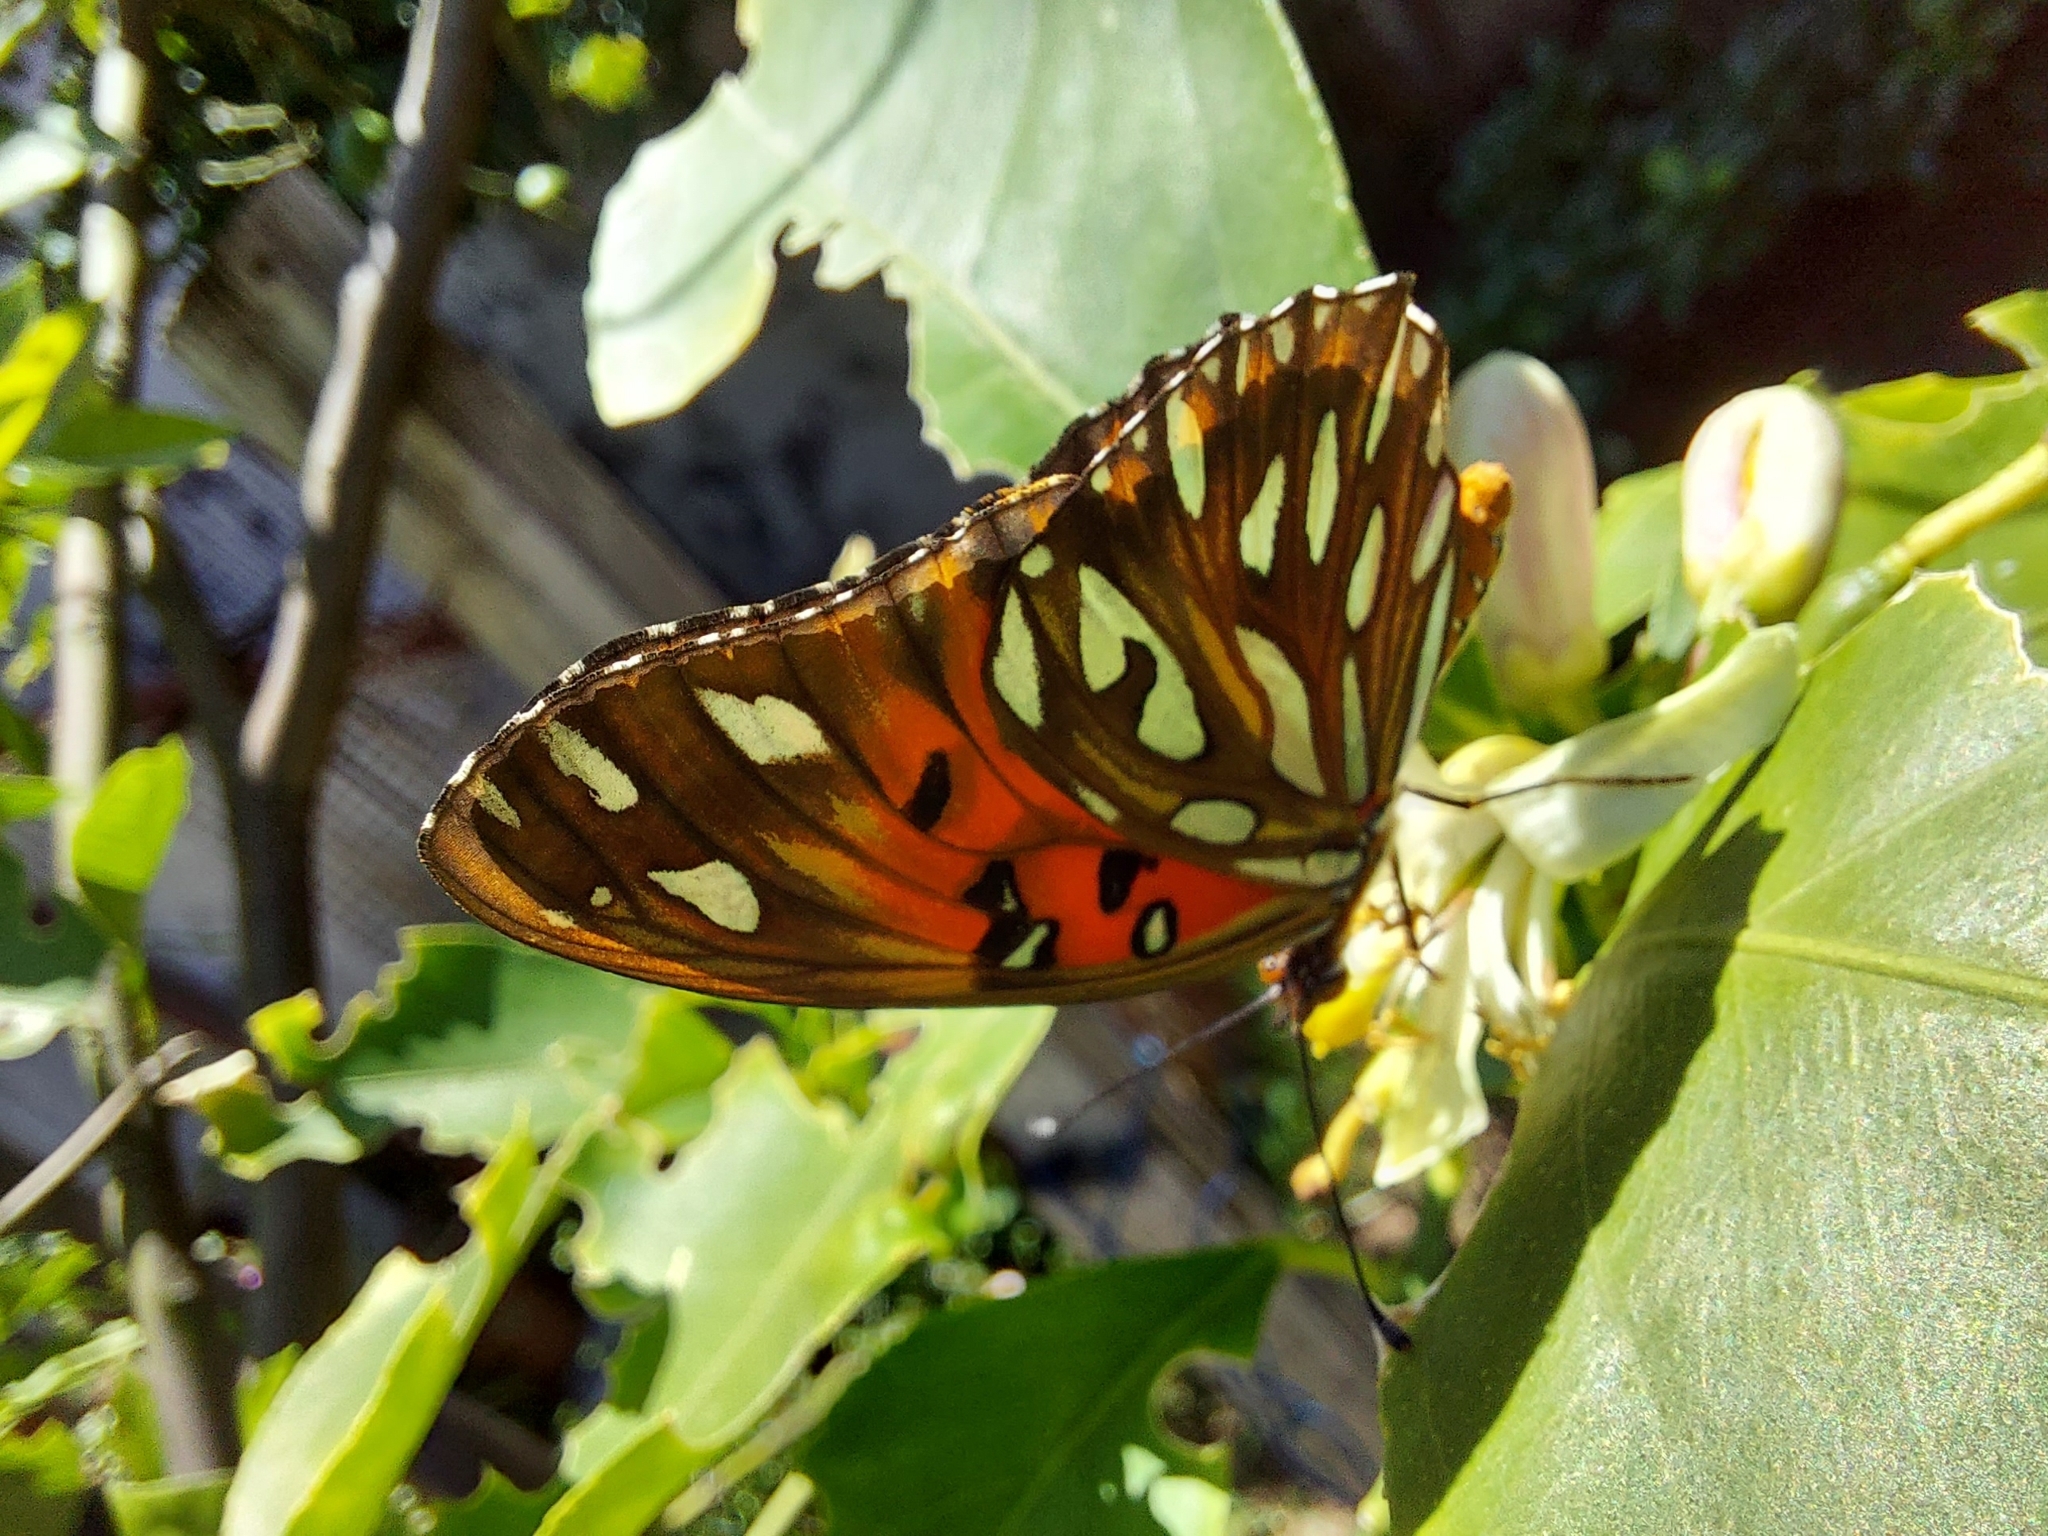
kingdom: Animalia
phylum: Arthropoda
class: Insecta
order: Lepidoptera
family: Nymphalidae
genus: Dione
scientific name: Dione vanillae
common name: Gulf fritillary
